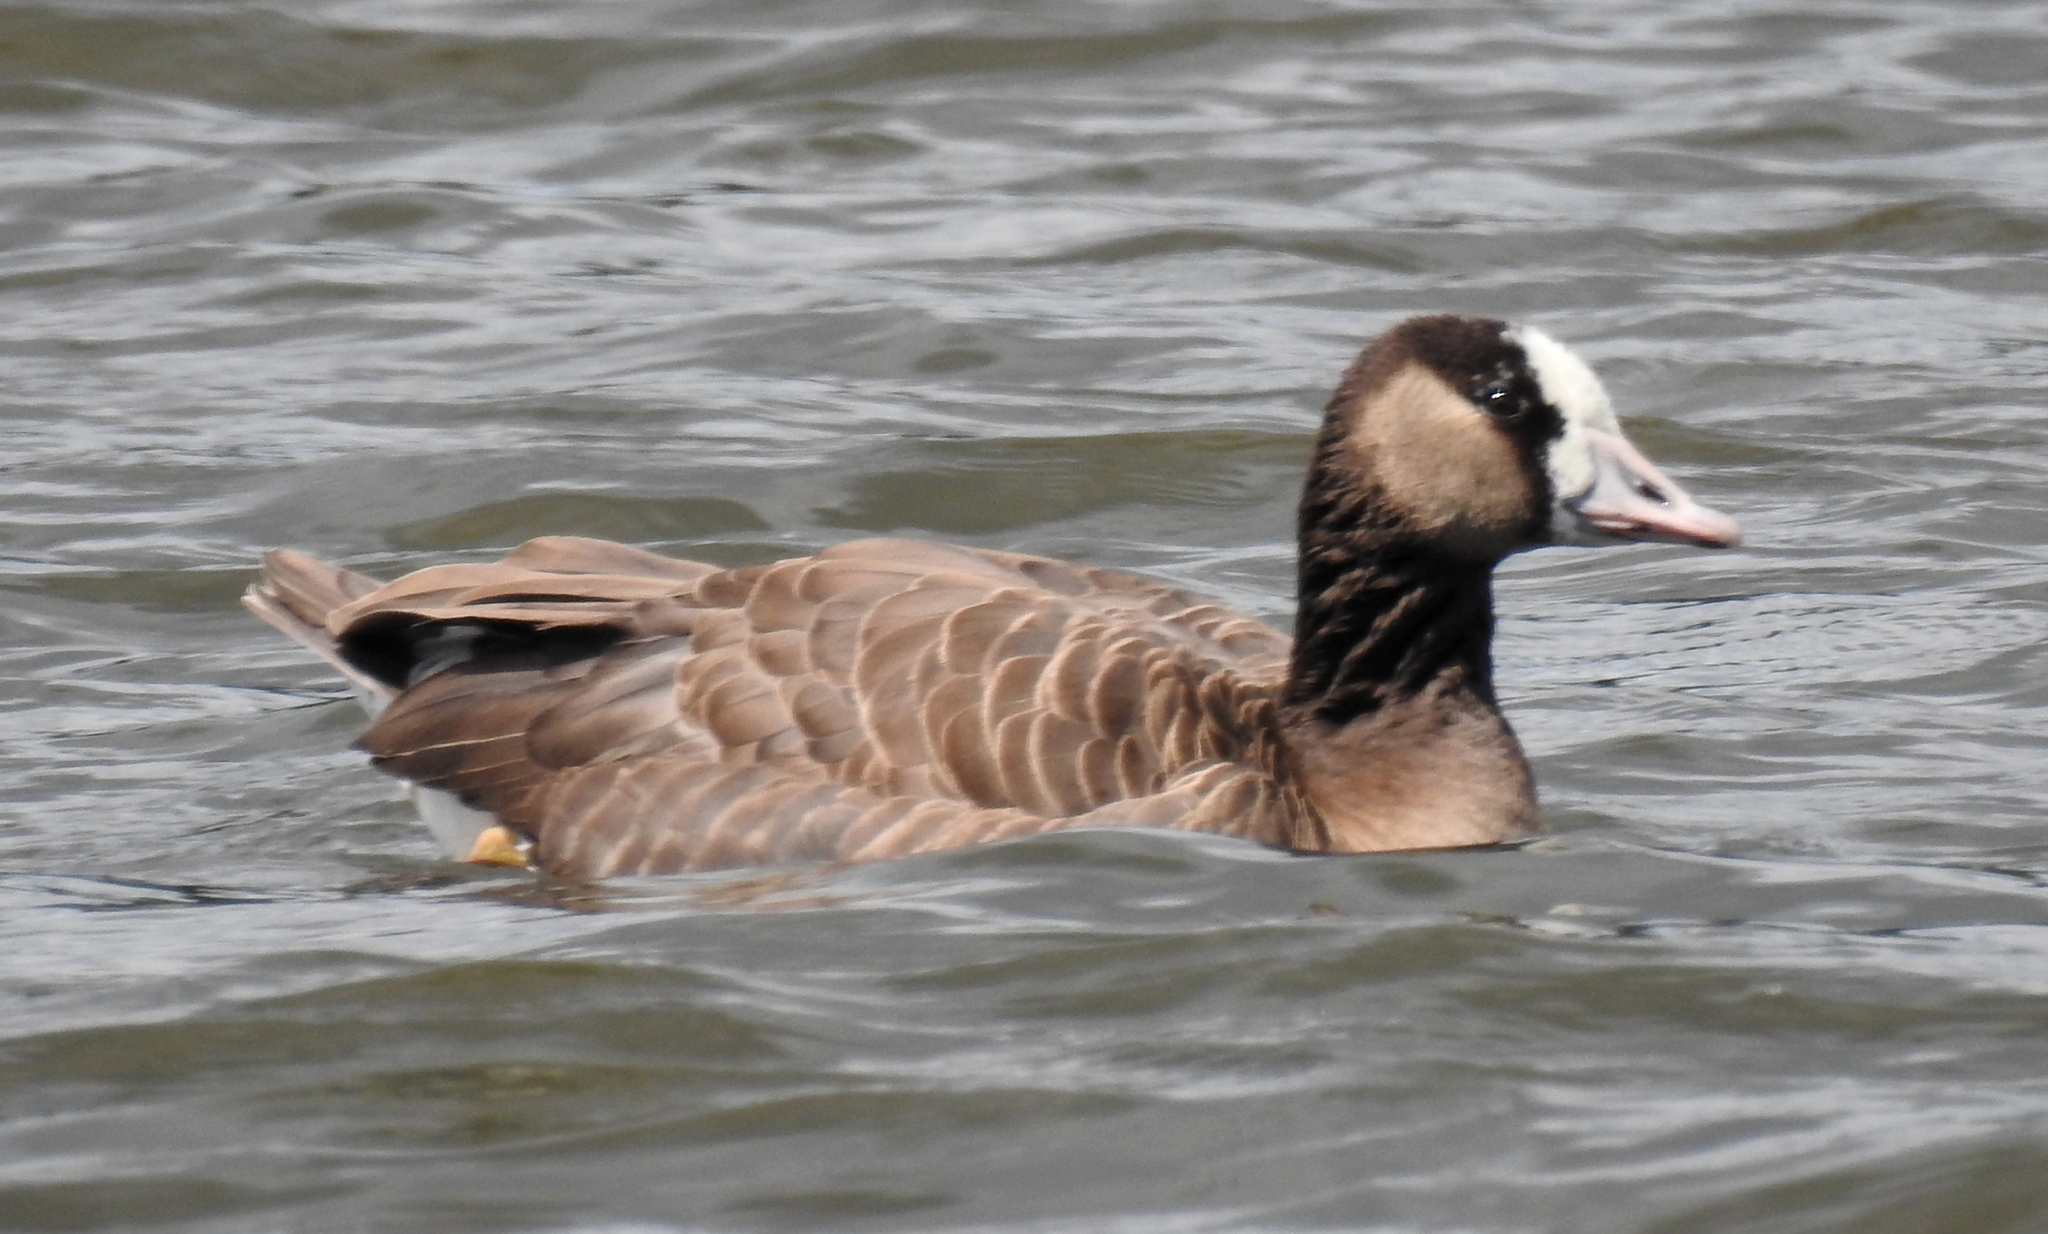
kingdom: Animalia
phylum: Chordata
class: Aves
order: Anseriformes
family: Anatidae
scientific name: Anatidae
